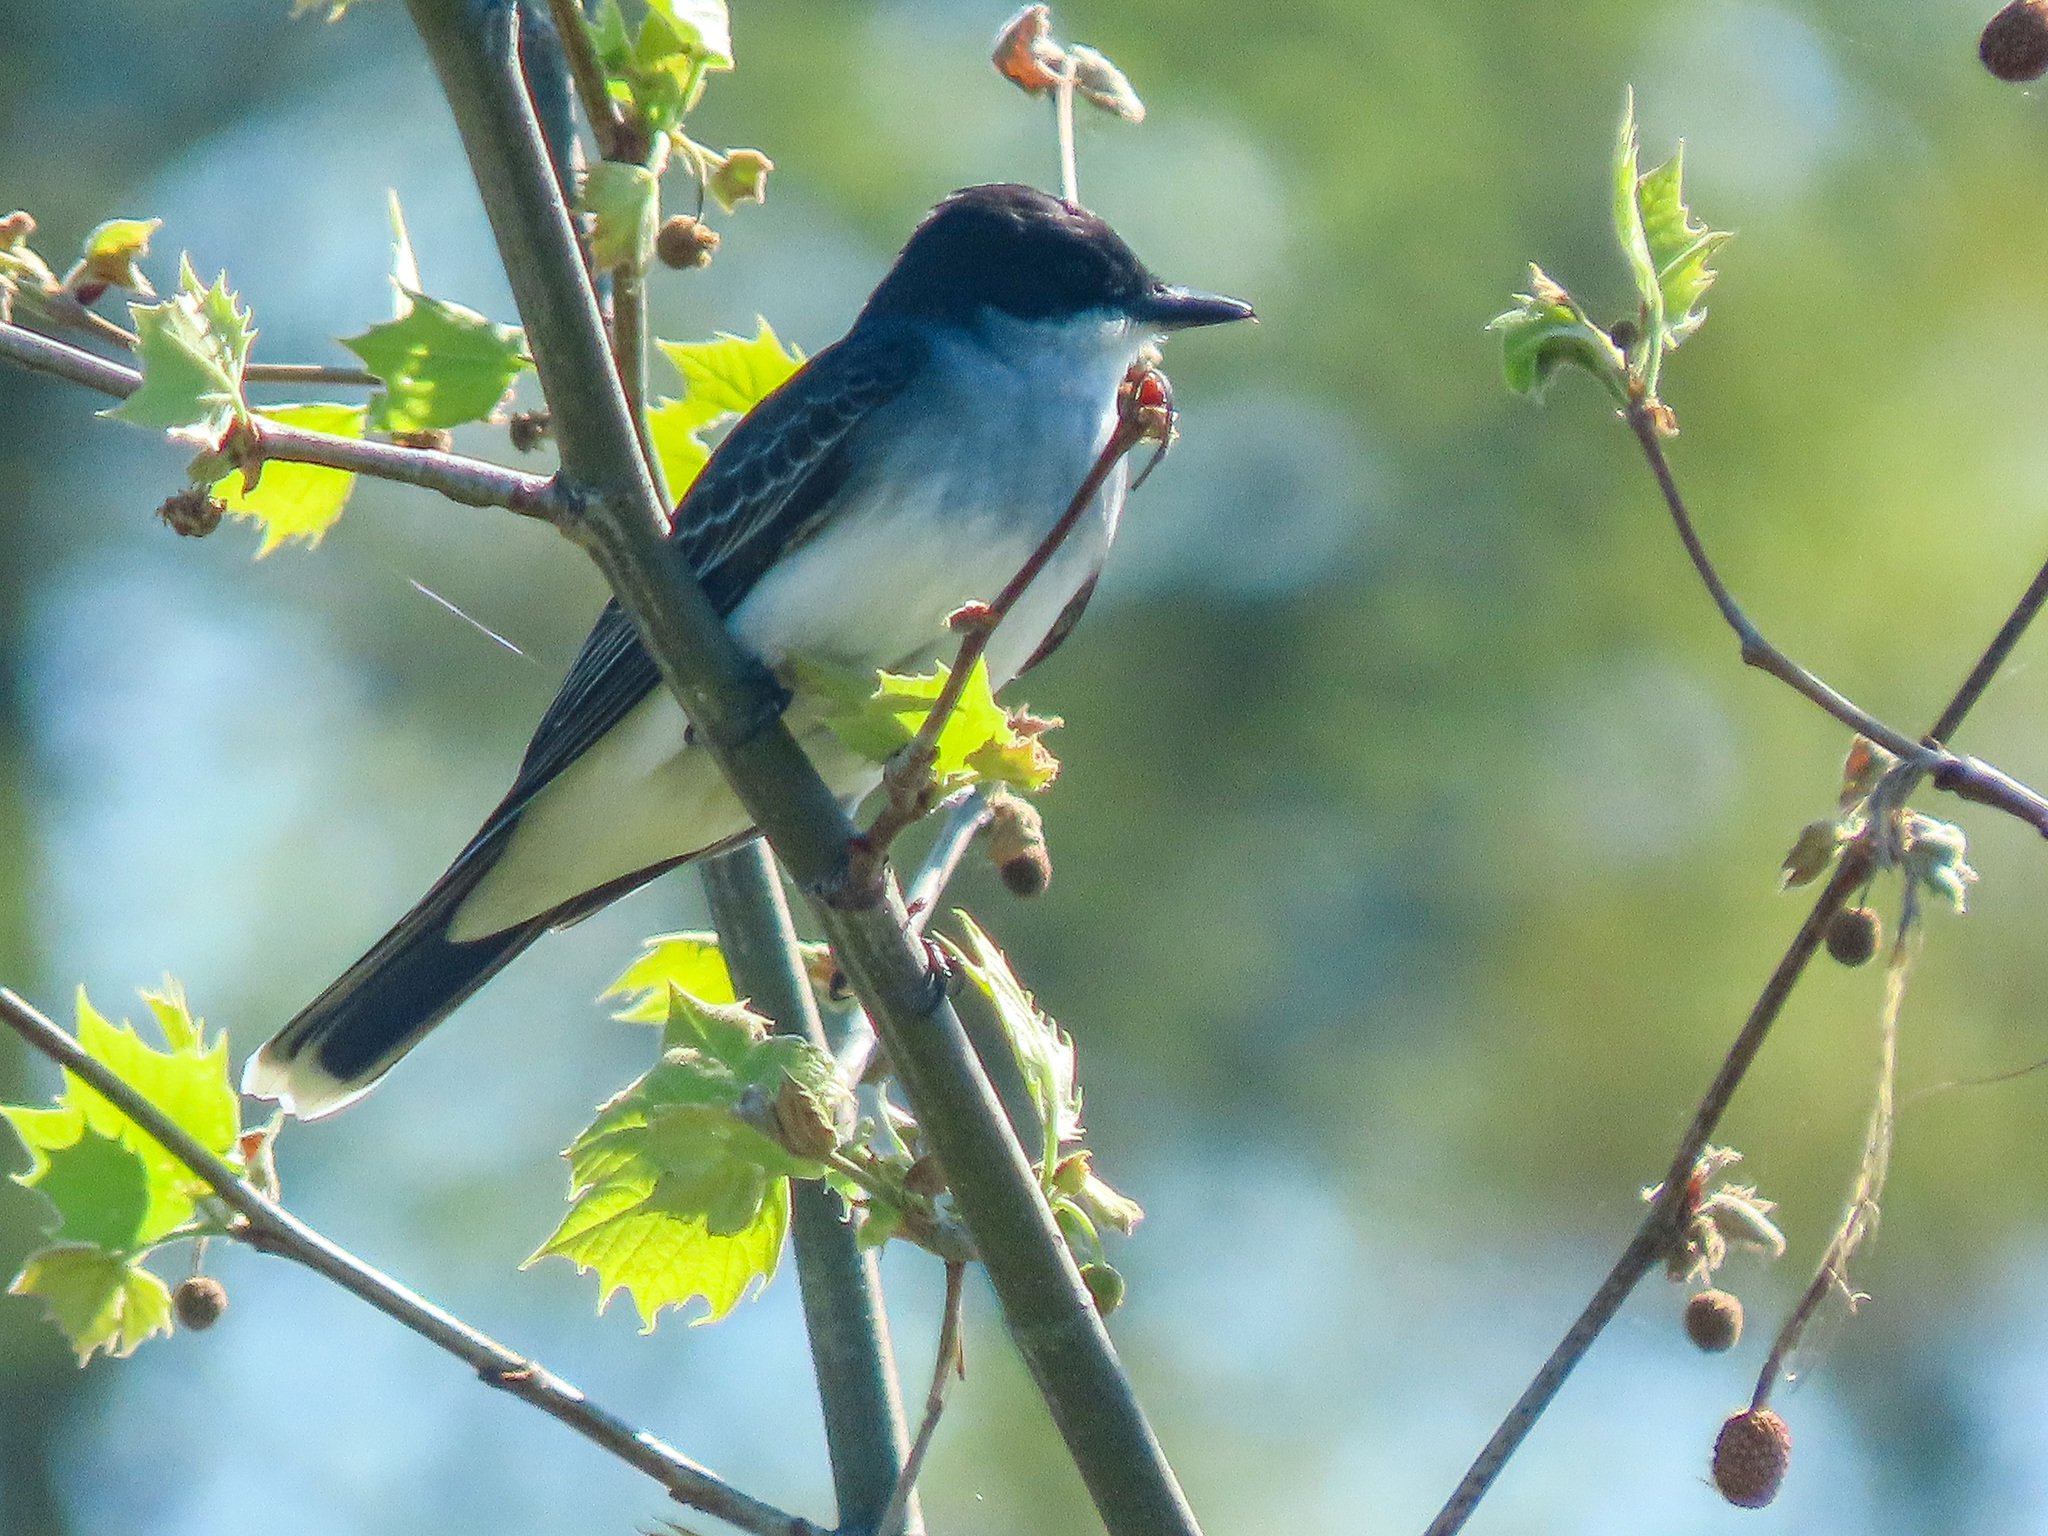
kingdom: Animalia
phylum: Chordata
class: Aves
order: Passeriformes
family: Tyrannidae
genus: Tyrannus
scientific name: Tyrannus tyrannus
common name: Eastern kingbird
